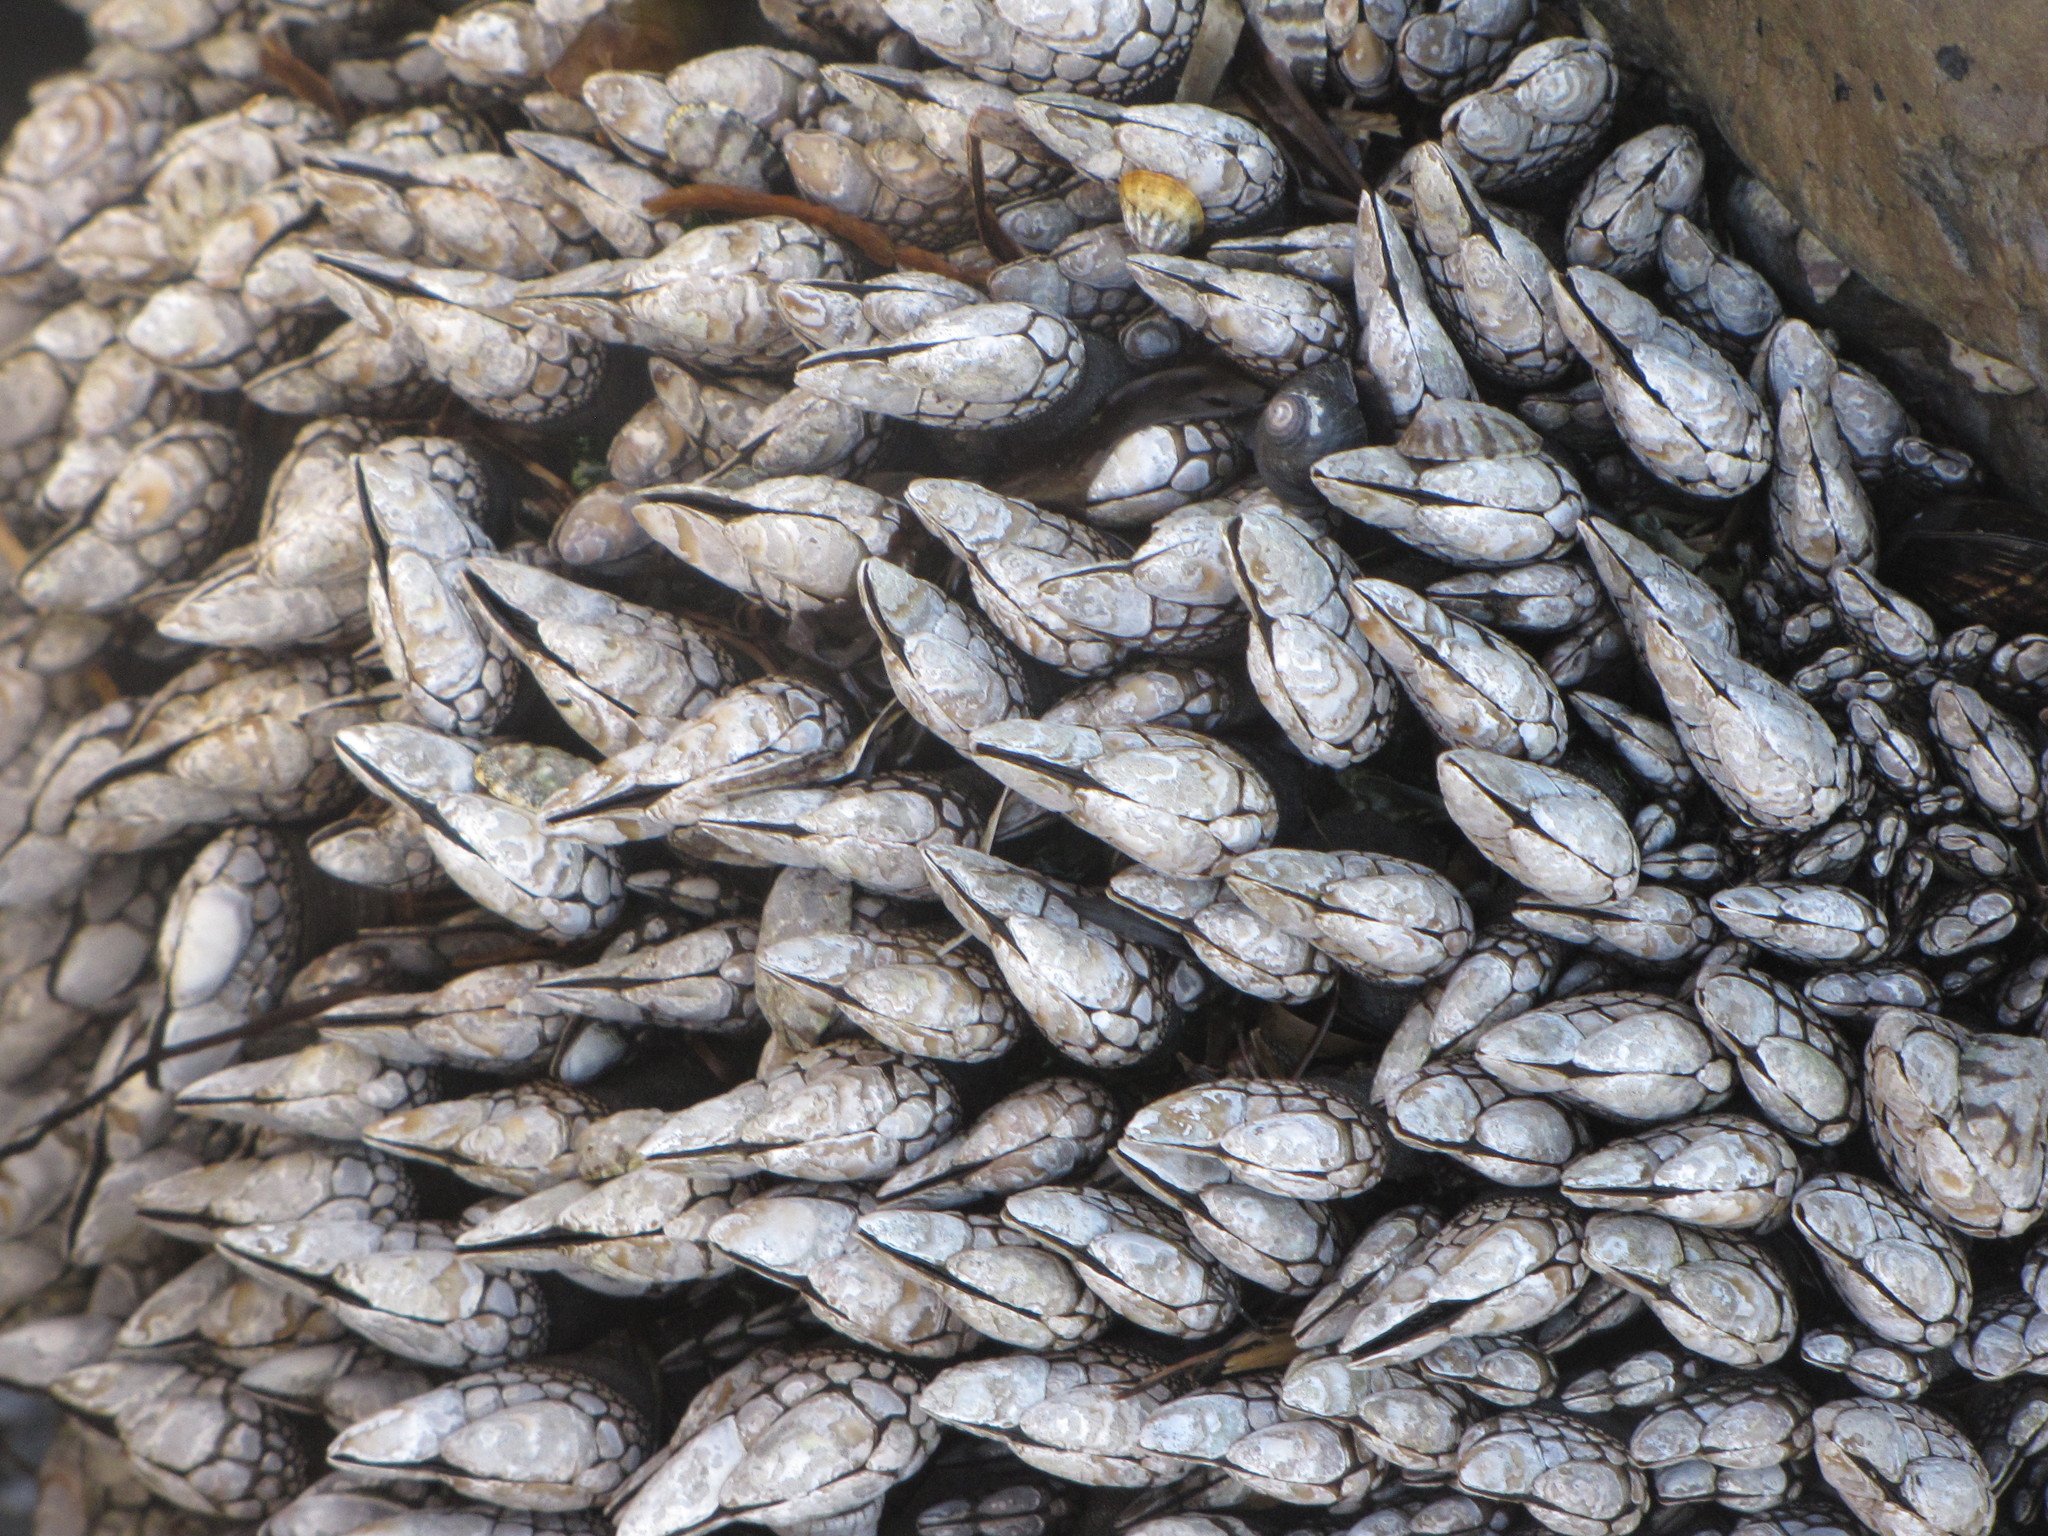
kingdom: Animalia
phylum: Arthropoda
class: Maxillopoda
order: Pedunculata
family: Pollicipedidae
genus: Pollicipes
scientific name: Pollicipes polymerus
